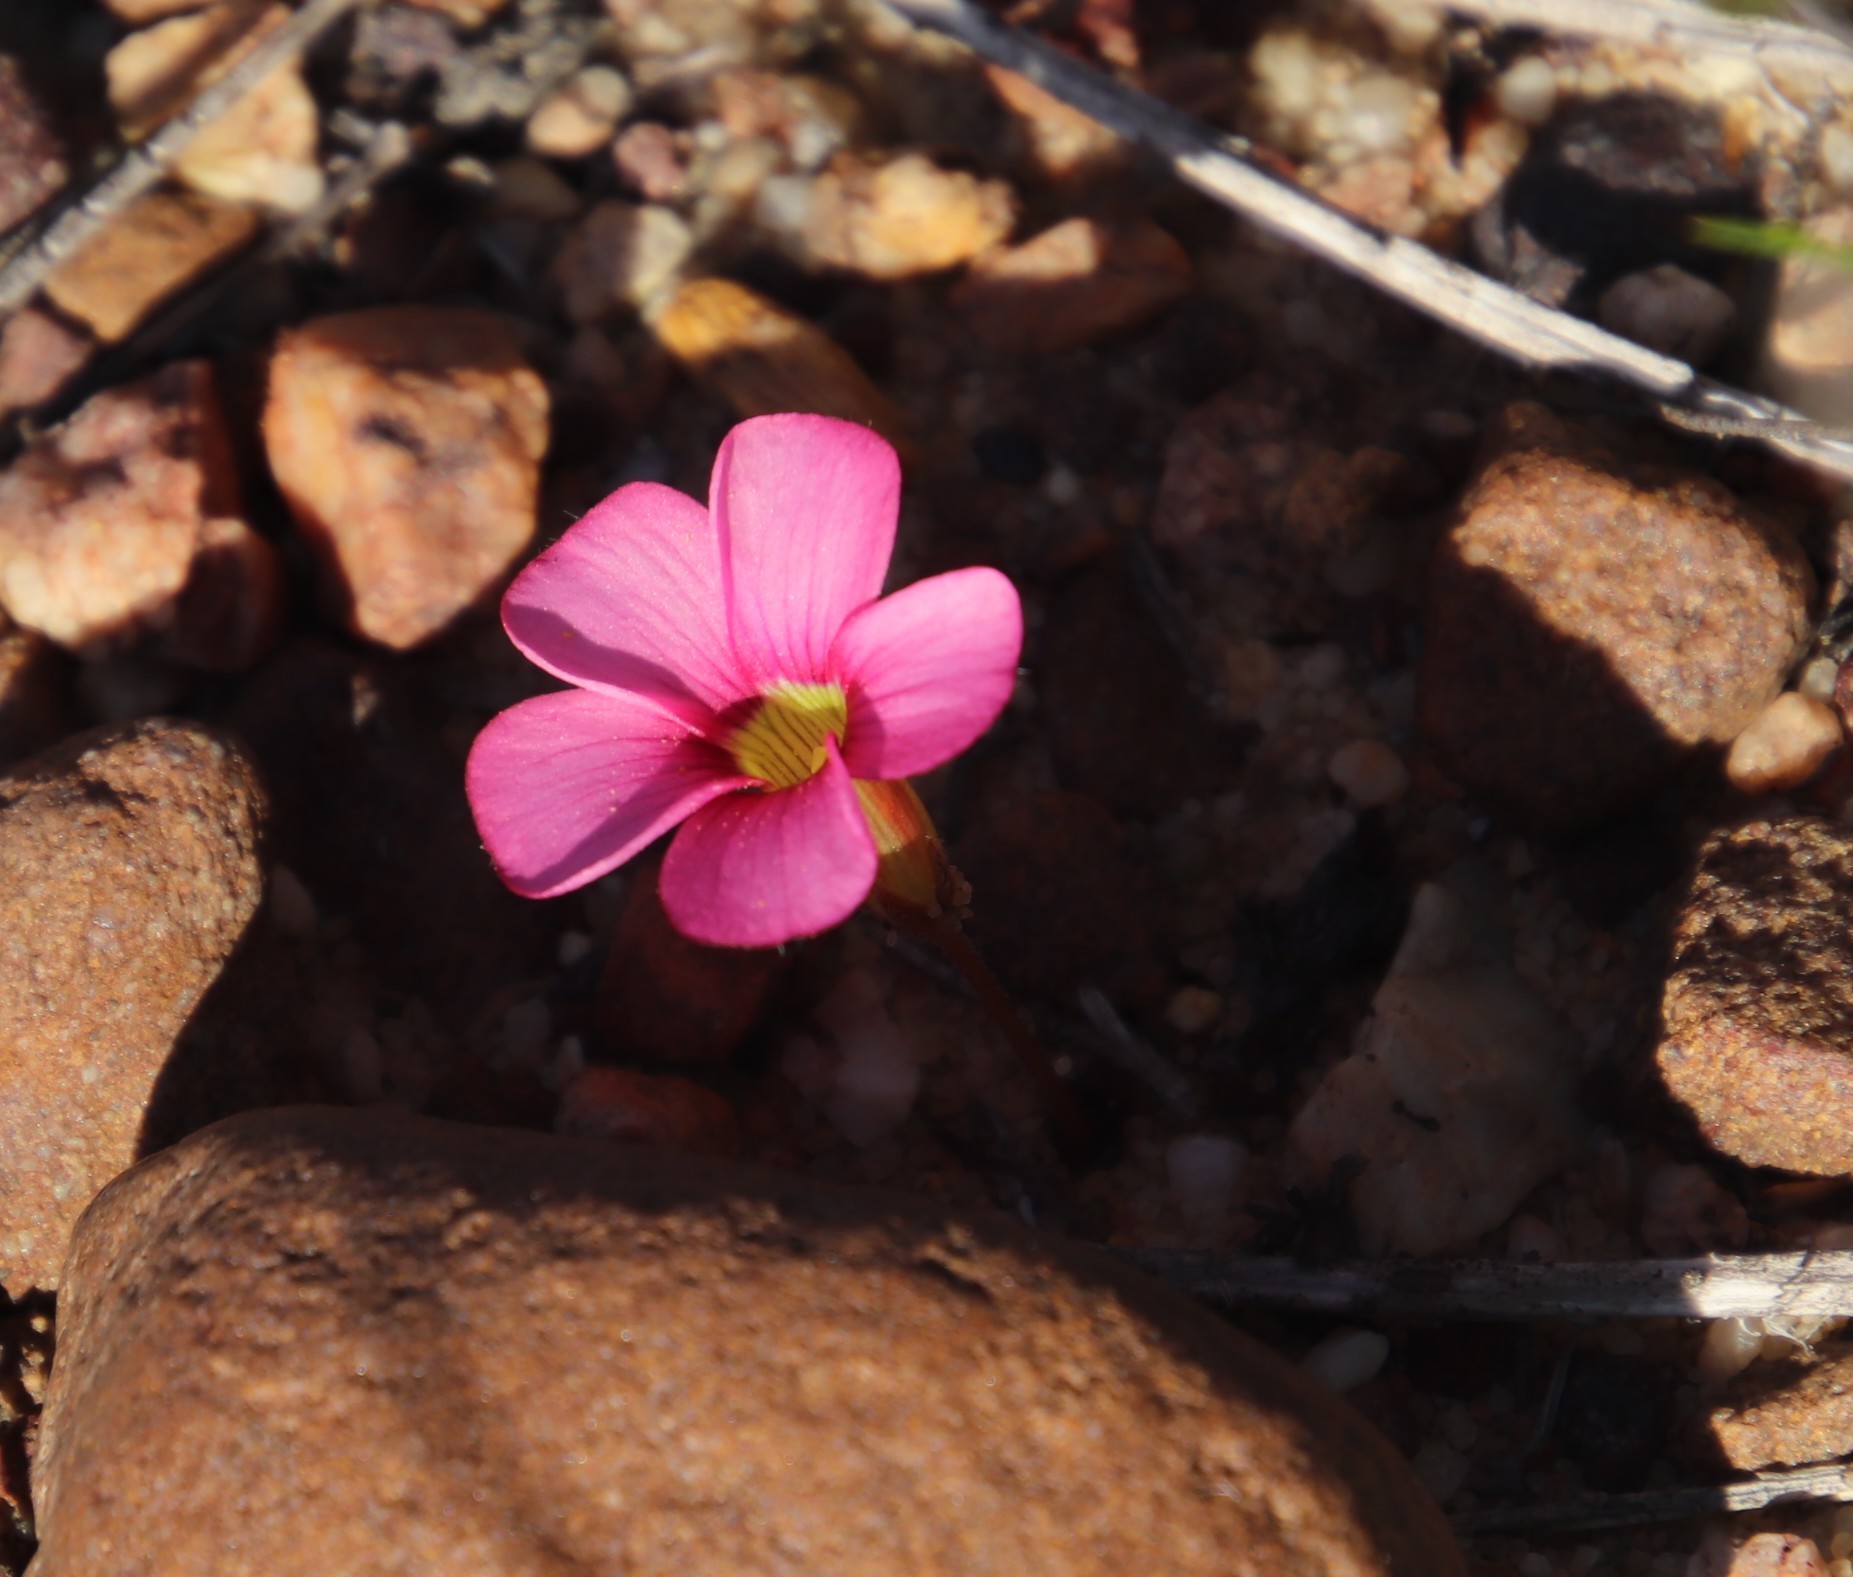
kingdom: Plantae
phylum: Tracheophyta
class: Magnoliopsida
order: Oxalidales
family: Oxalidaceae
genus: Oxalis
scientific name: Oxalis eckloniana
